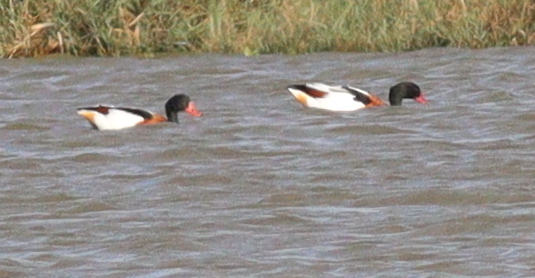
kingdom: Animalia
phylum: Chordata
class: Aves
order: Anseriformes
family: Anatidae
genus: Tadorna
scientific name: Tadorna tadorna
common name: Common shelduck
